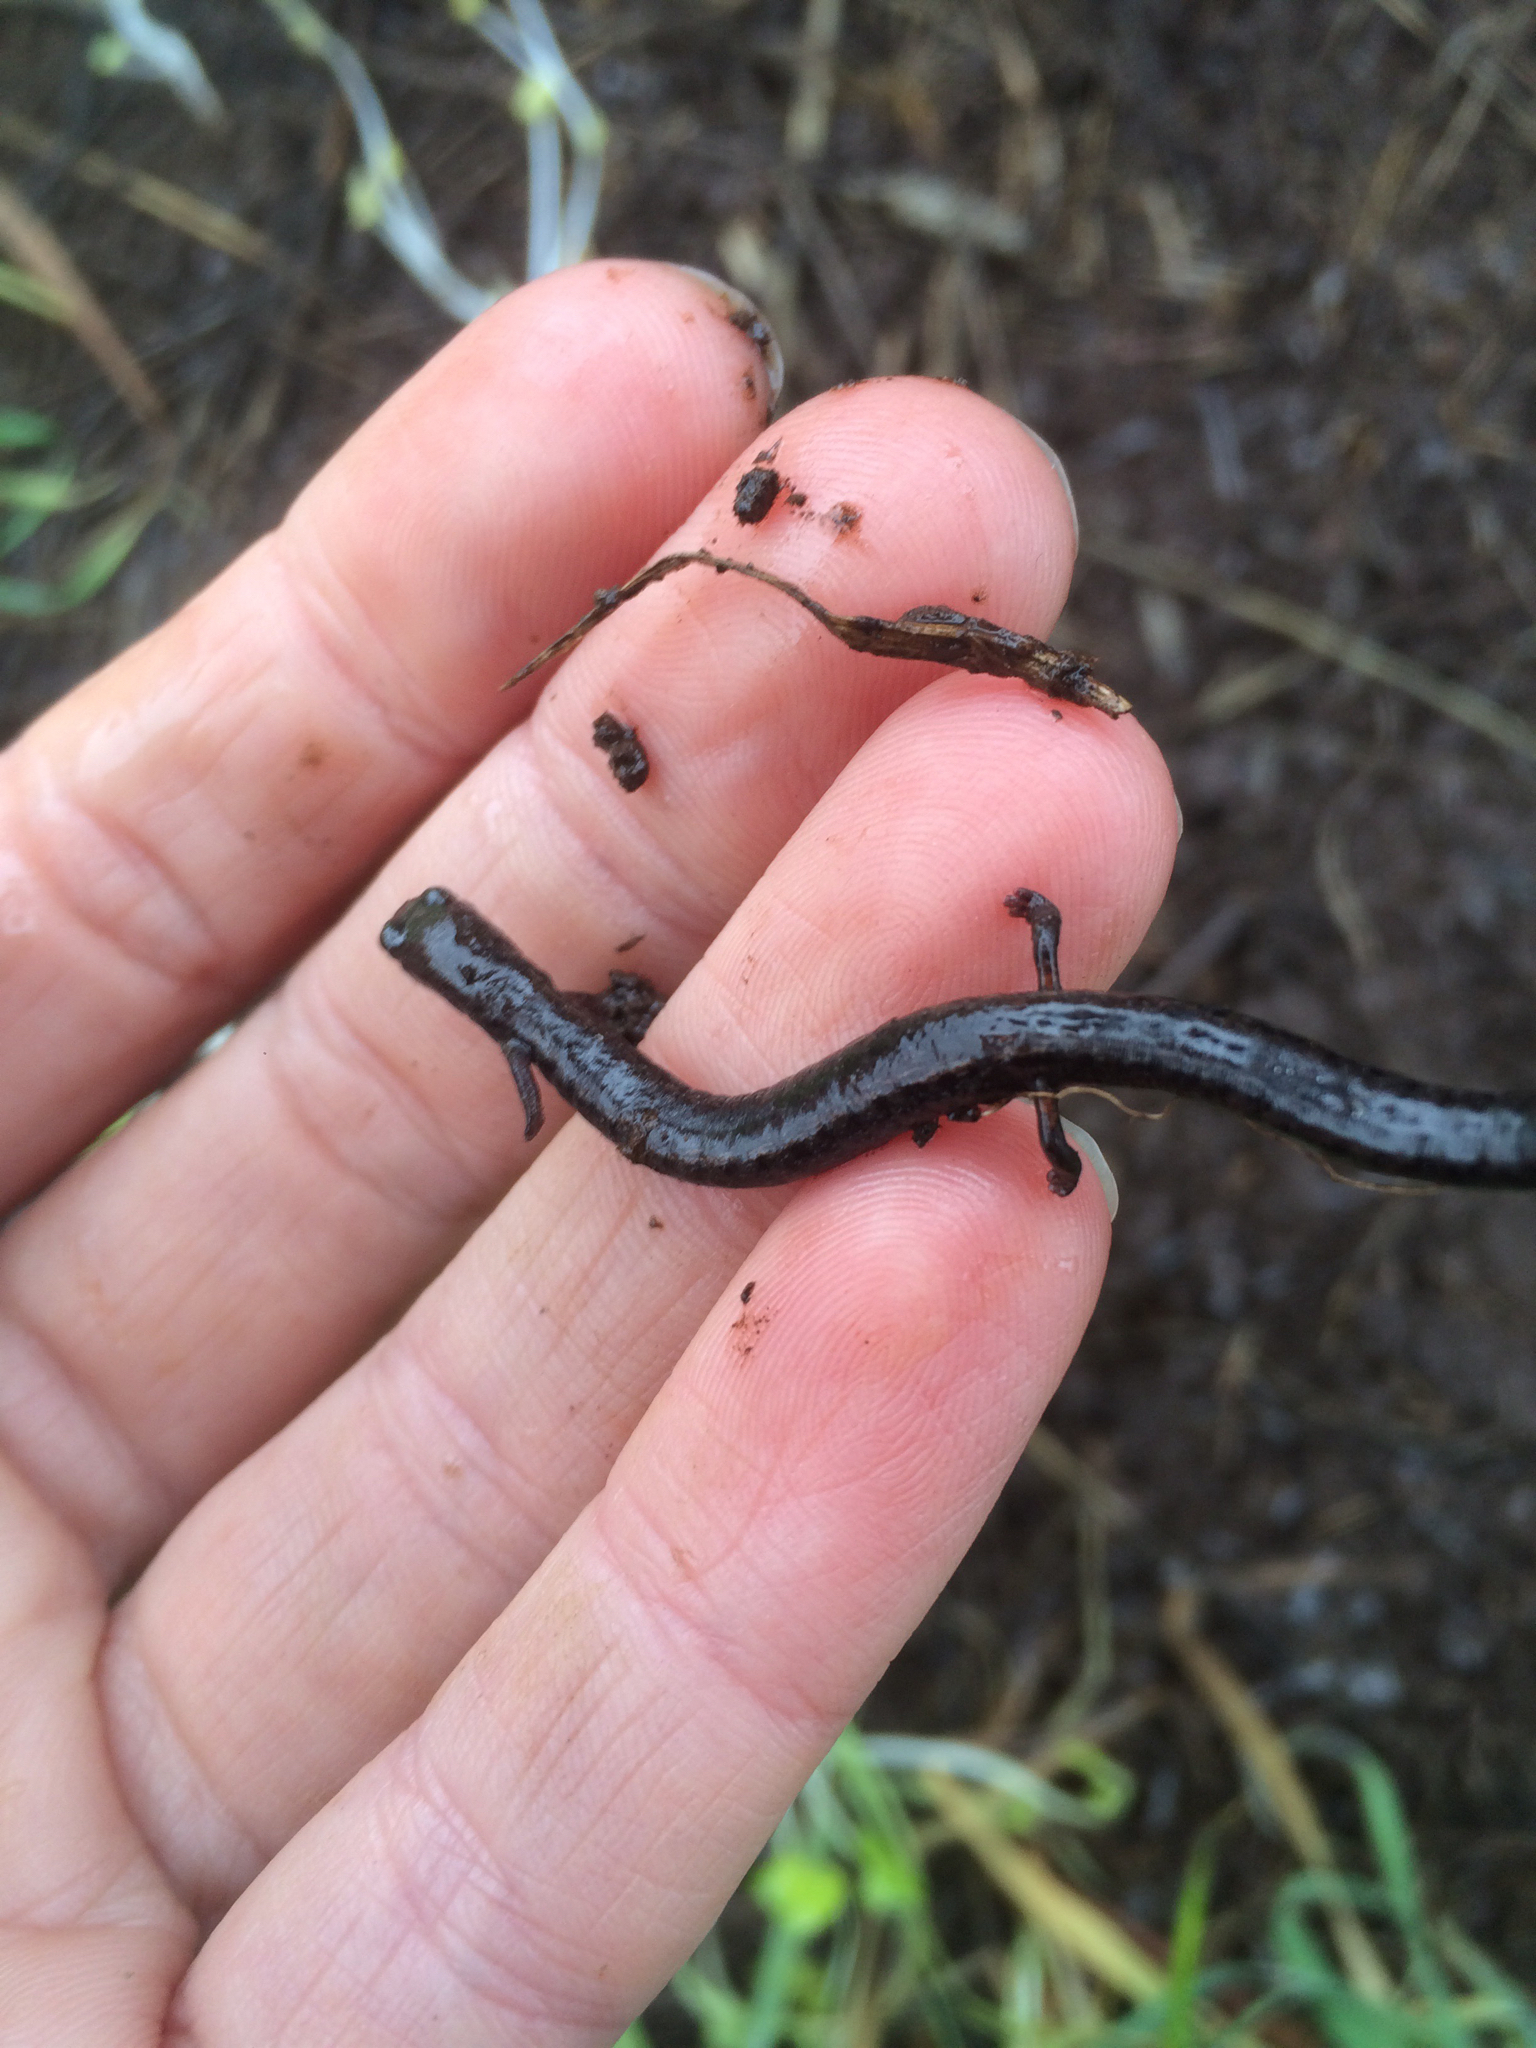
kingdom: Animalia
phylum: Chordata
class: Amphibia
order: Caudata
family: Plethodontidae
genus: Batrachoseps
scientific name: Batrachoseps attenuatus
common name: California slender salamander
